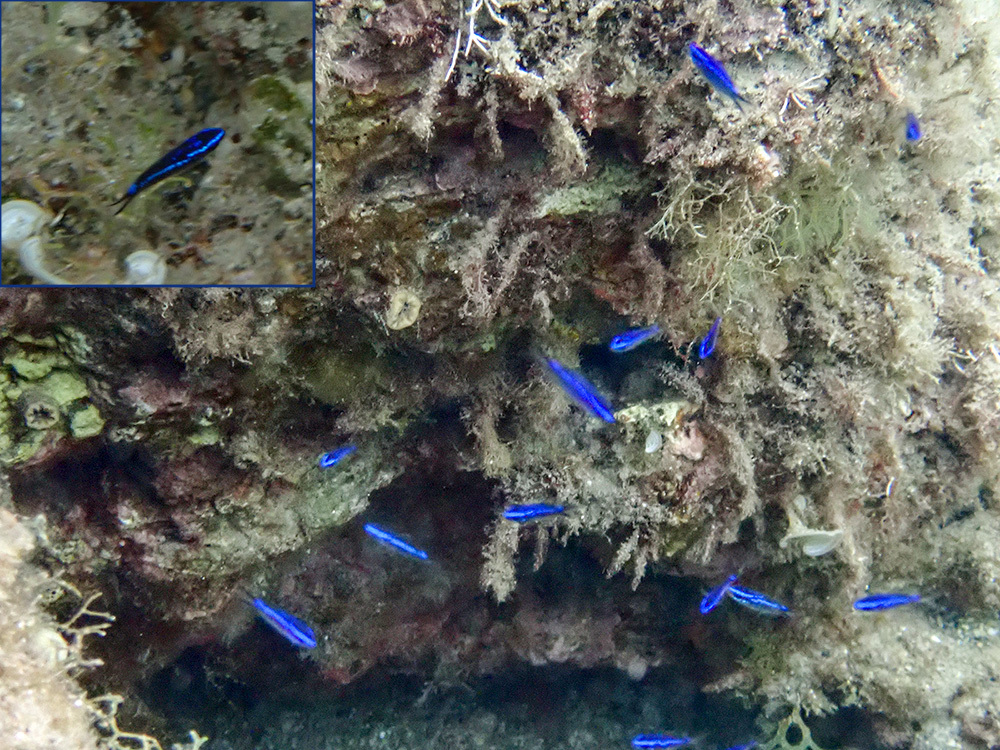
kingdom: Animalia
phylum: Chordata
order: Perciformes
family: Pomacentridae
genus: Chromis
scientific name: Chromis chromis
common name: Damselfish
